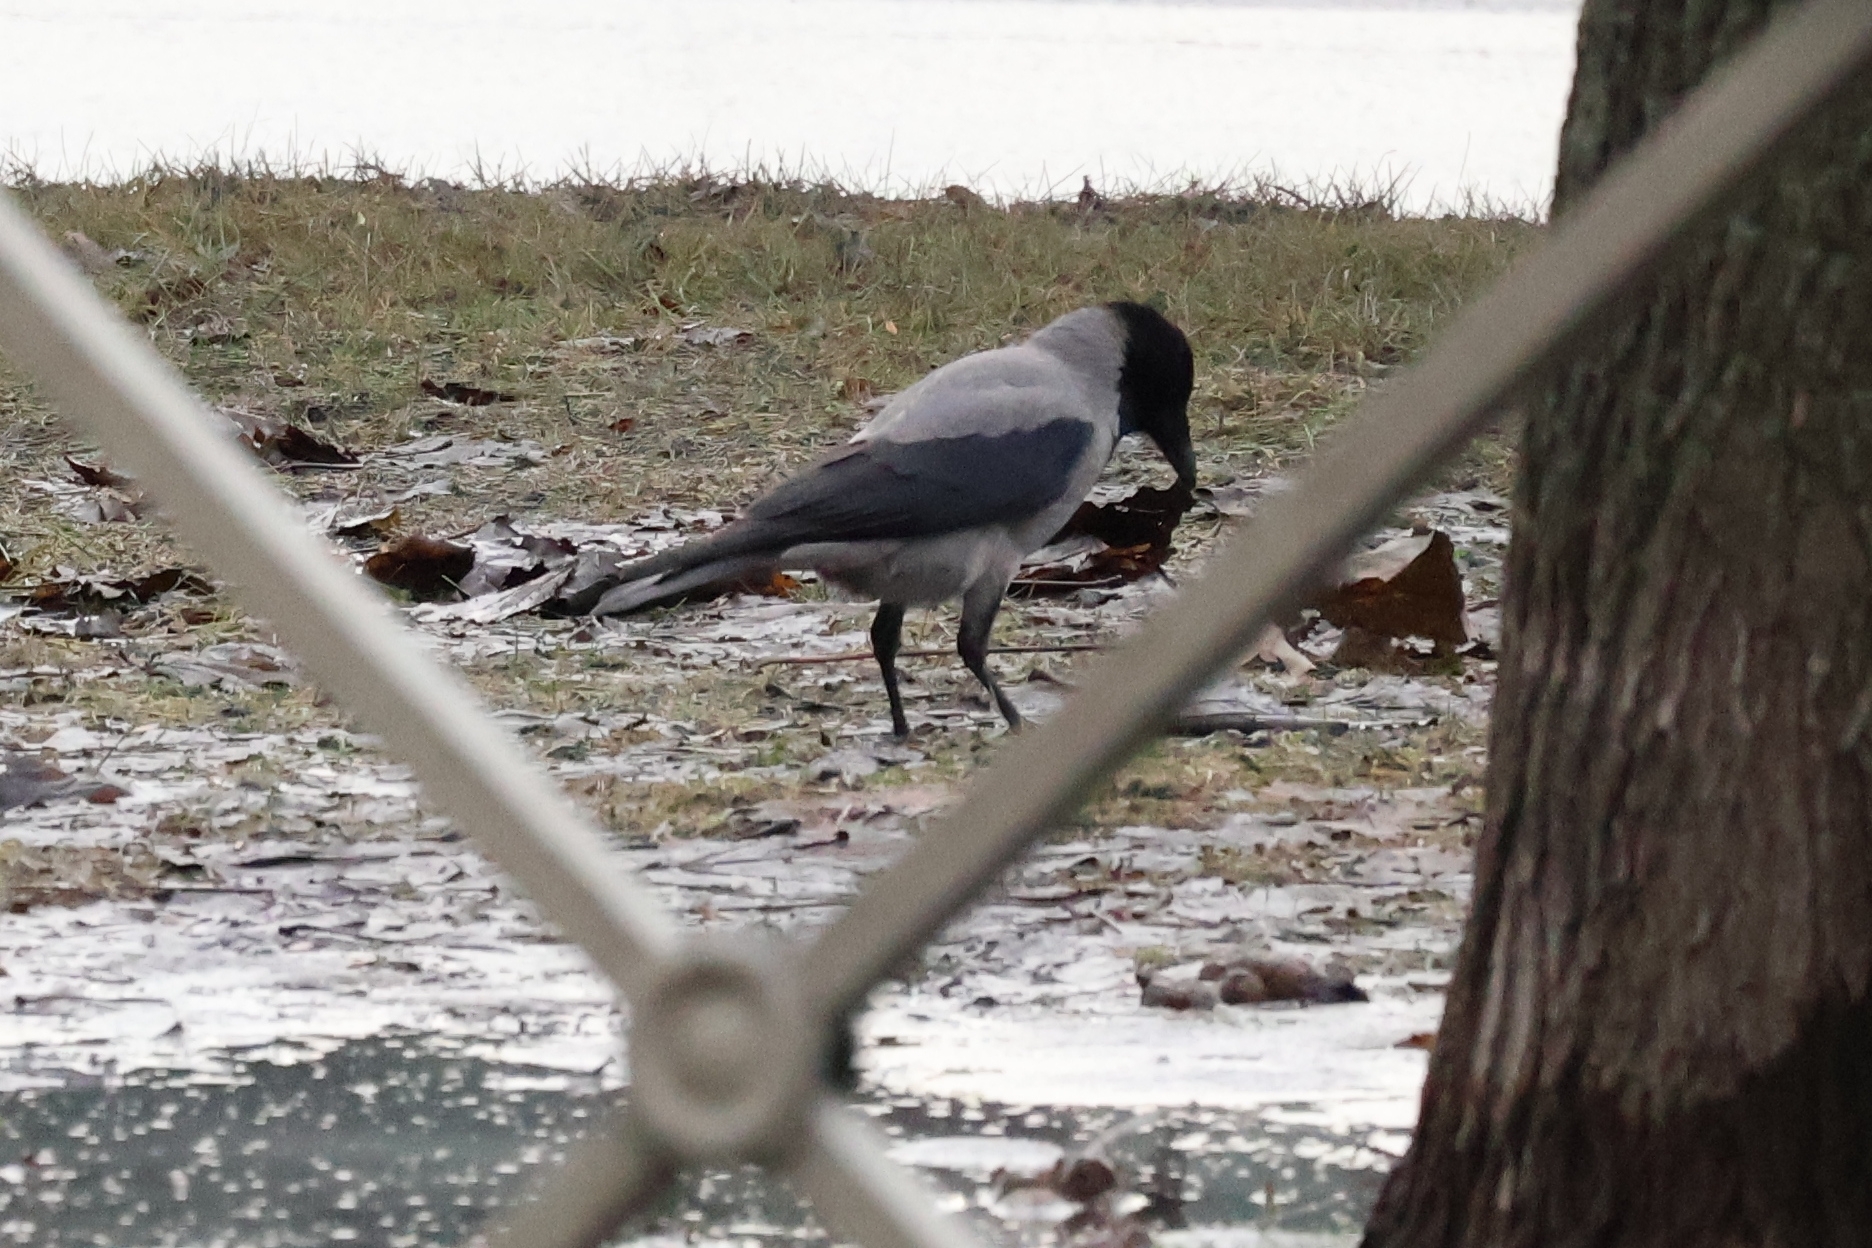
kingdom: Animalia
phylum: Chordata
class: Aves
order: Passeriformes
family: Corvidae
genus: Corvus
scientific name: Corvus cornix
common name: Hooded crow
